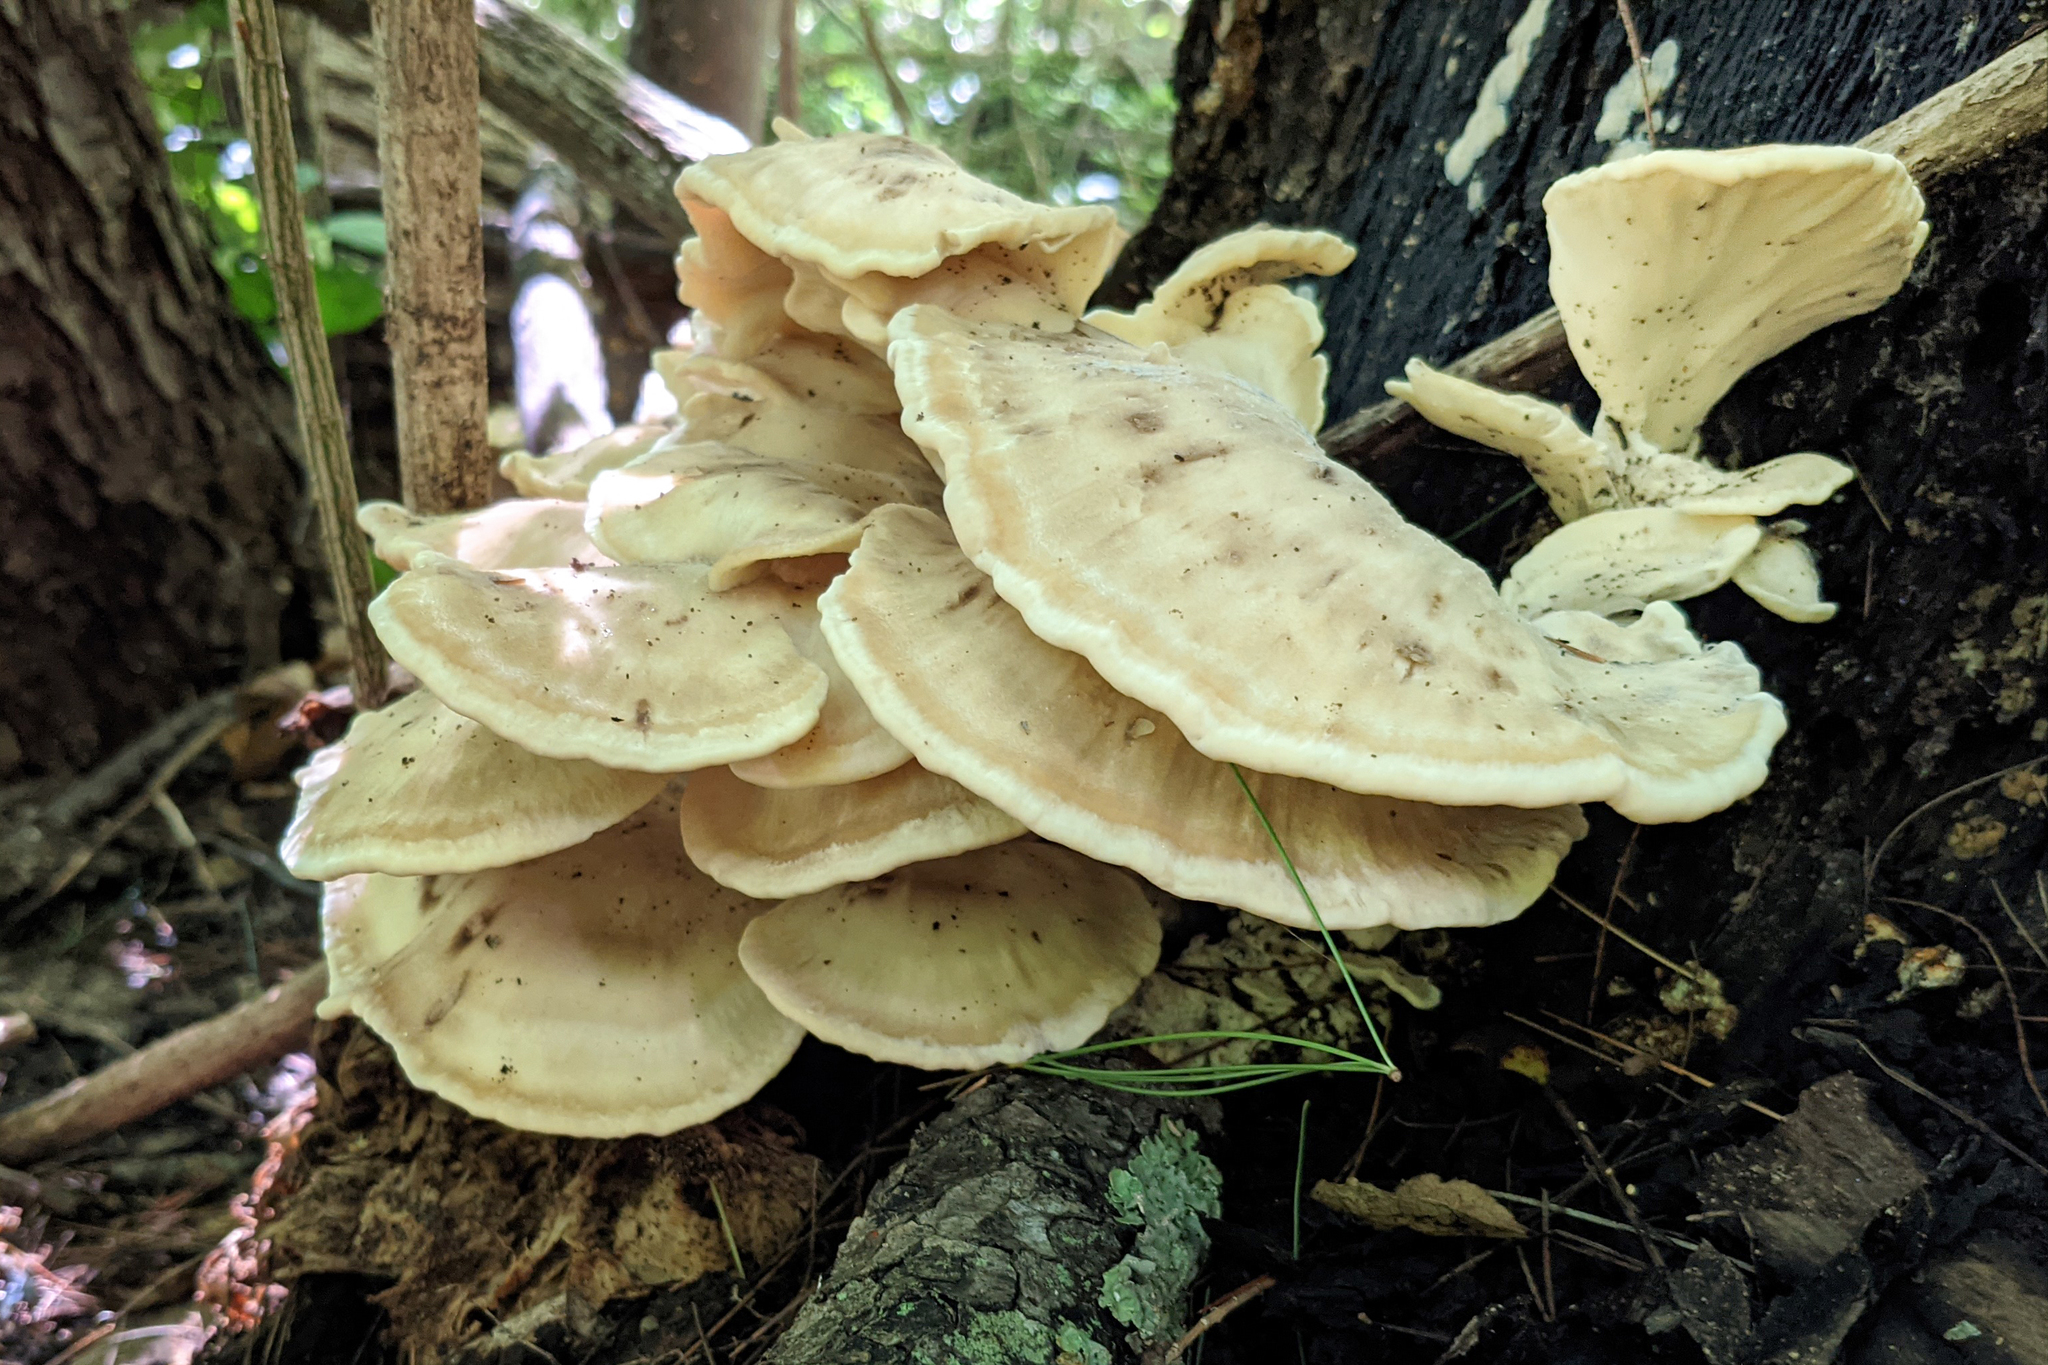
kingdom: Fungi
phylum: Basidiomycota
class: Agaricomycetes
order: Polyporales
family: Meripilaceae
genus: Meripilus
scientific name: Meripilus sumstinei
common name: Black-staining polypore
